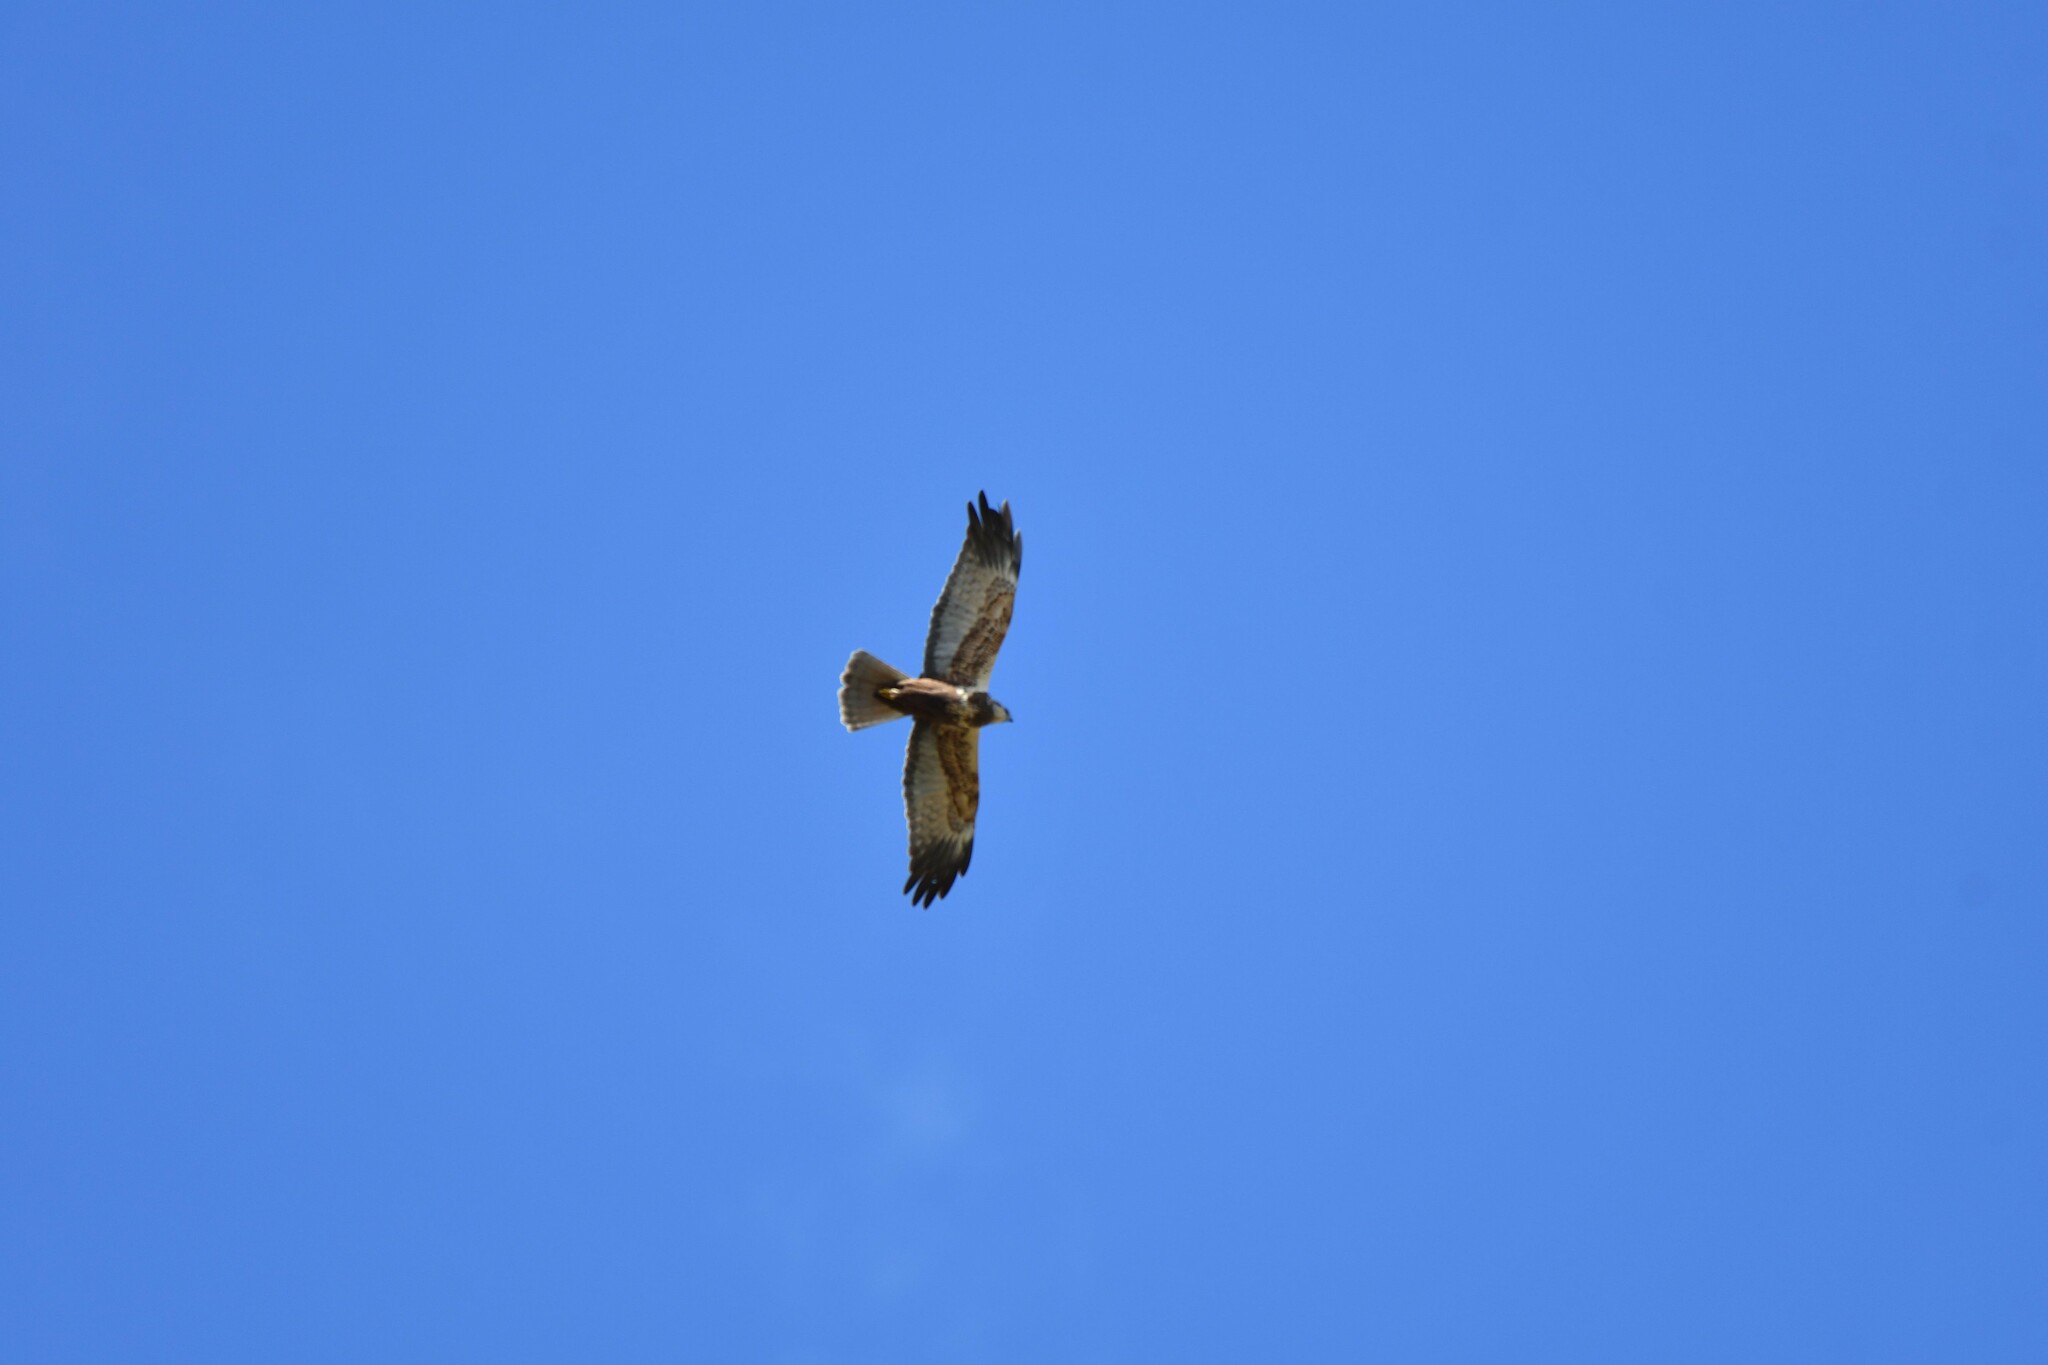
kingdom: Animalia
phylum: Chordata
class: Aves
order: Accipitriformes
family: Accipitridae
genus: Circus
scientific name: Circus aeruginosus
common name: Western marsh harrier
